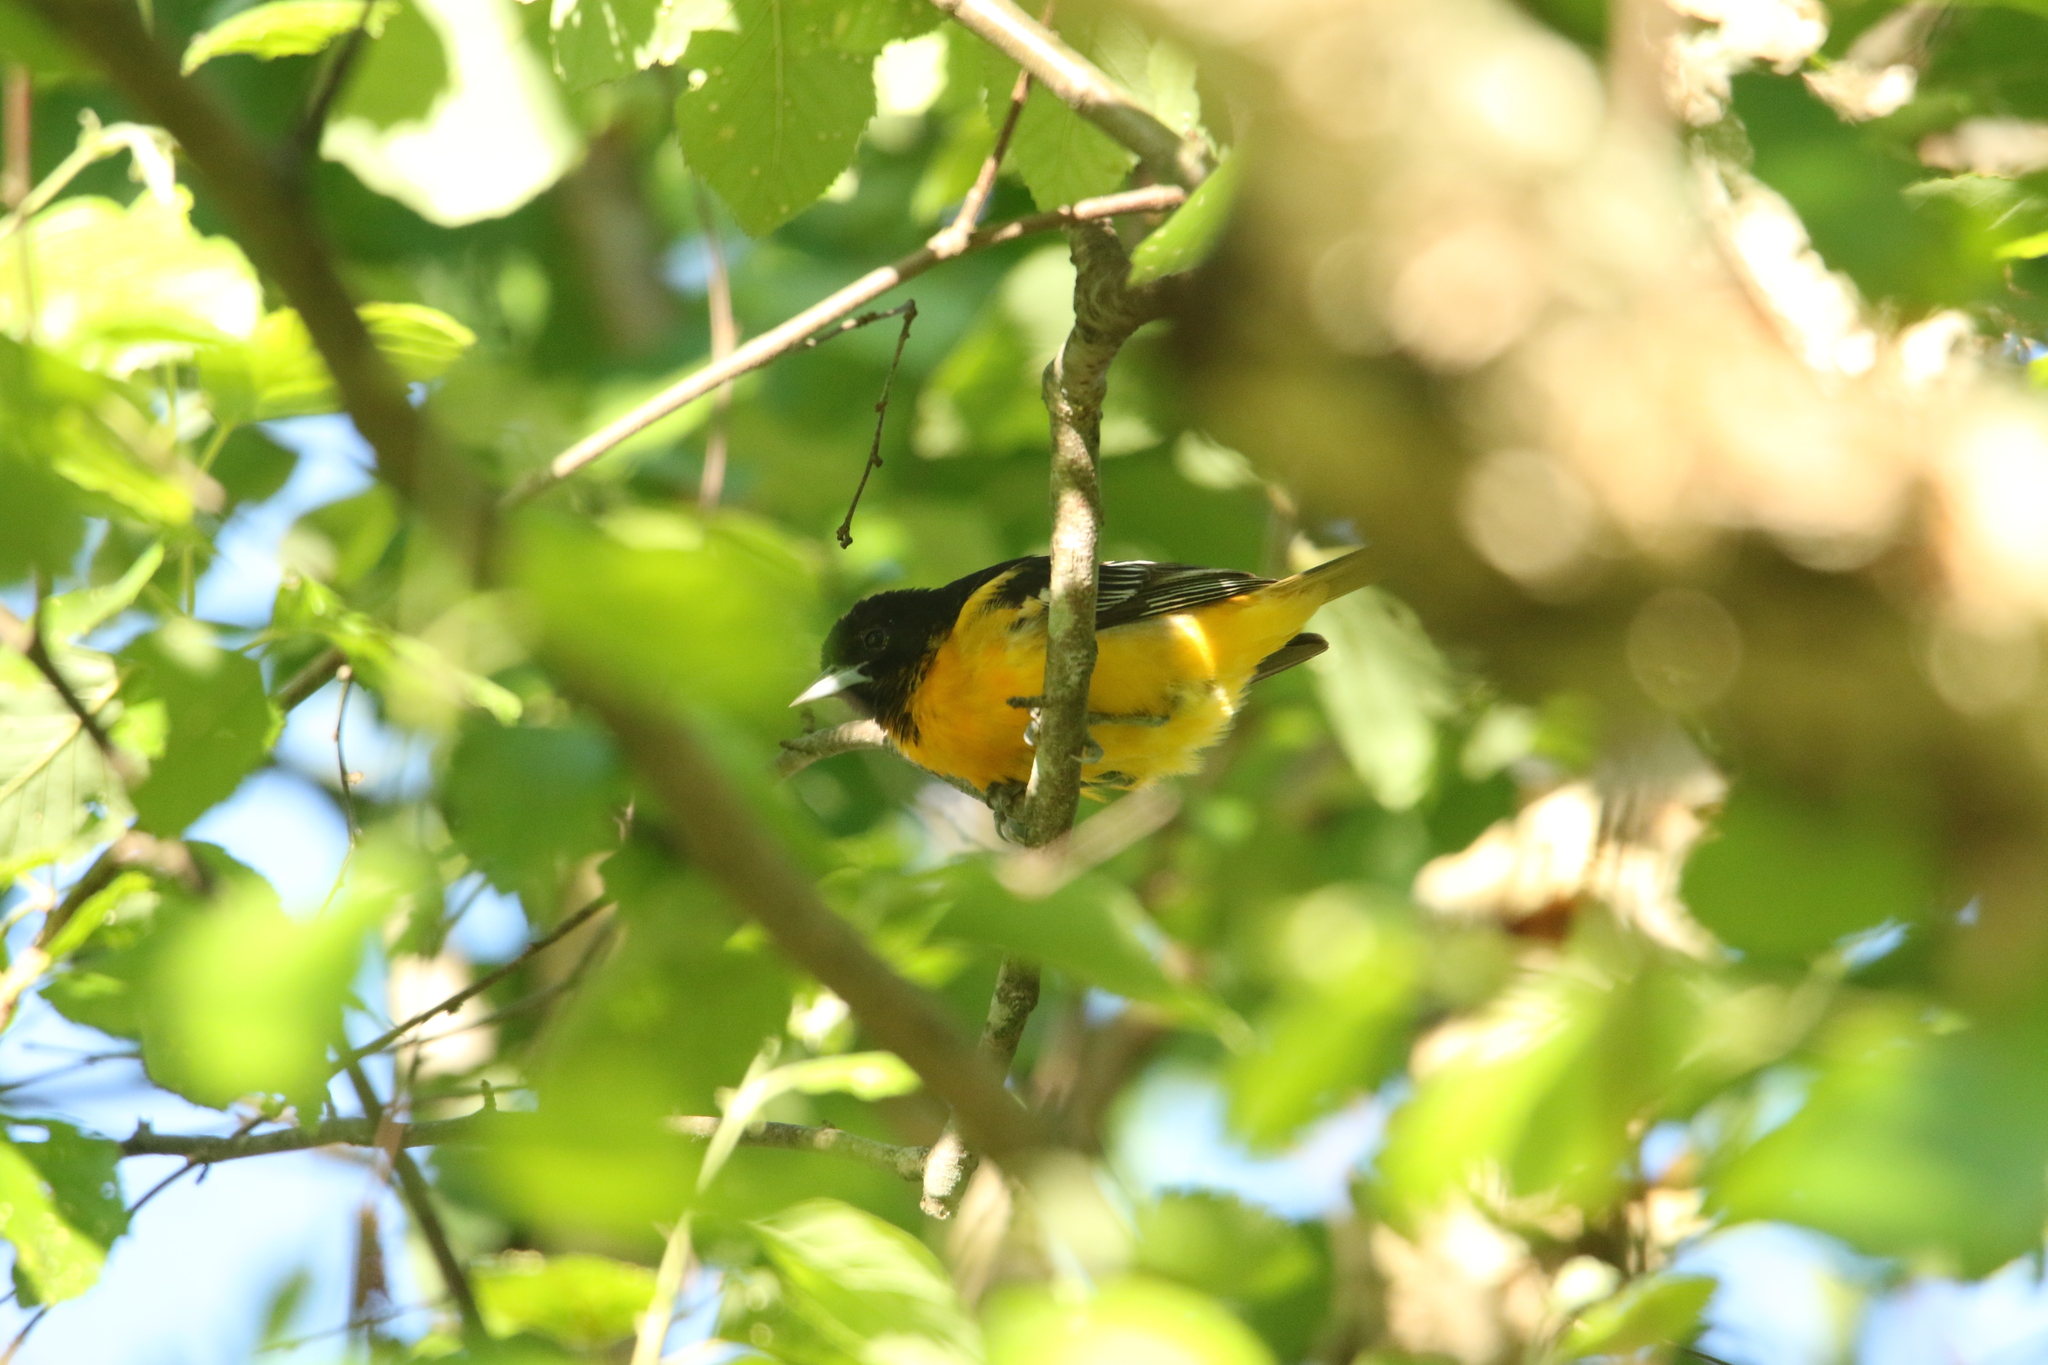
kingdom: Animalia
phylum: Chordata
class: Aves
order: Passeriformes
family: Icteridae
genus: Icterus
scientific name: Icterus galbula
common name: Baltimore oriole
